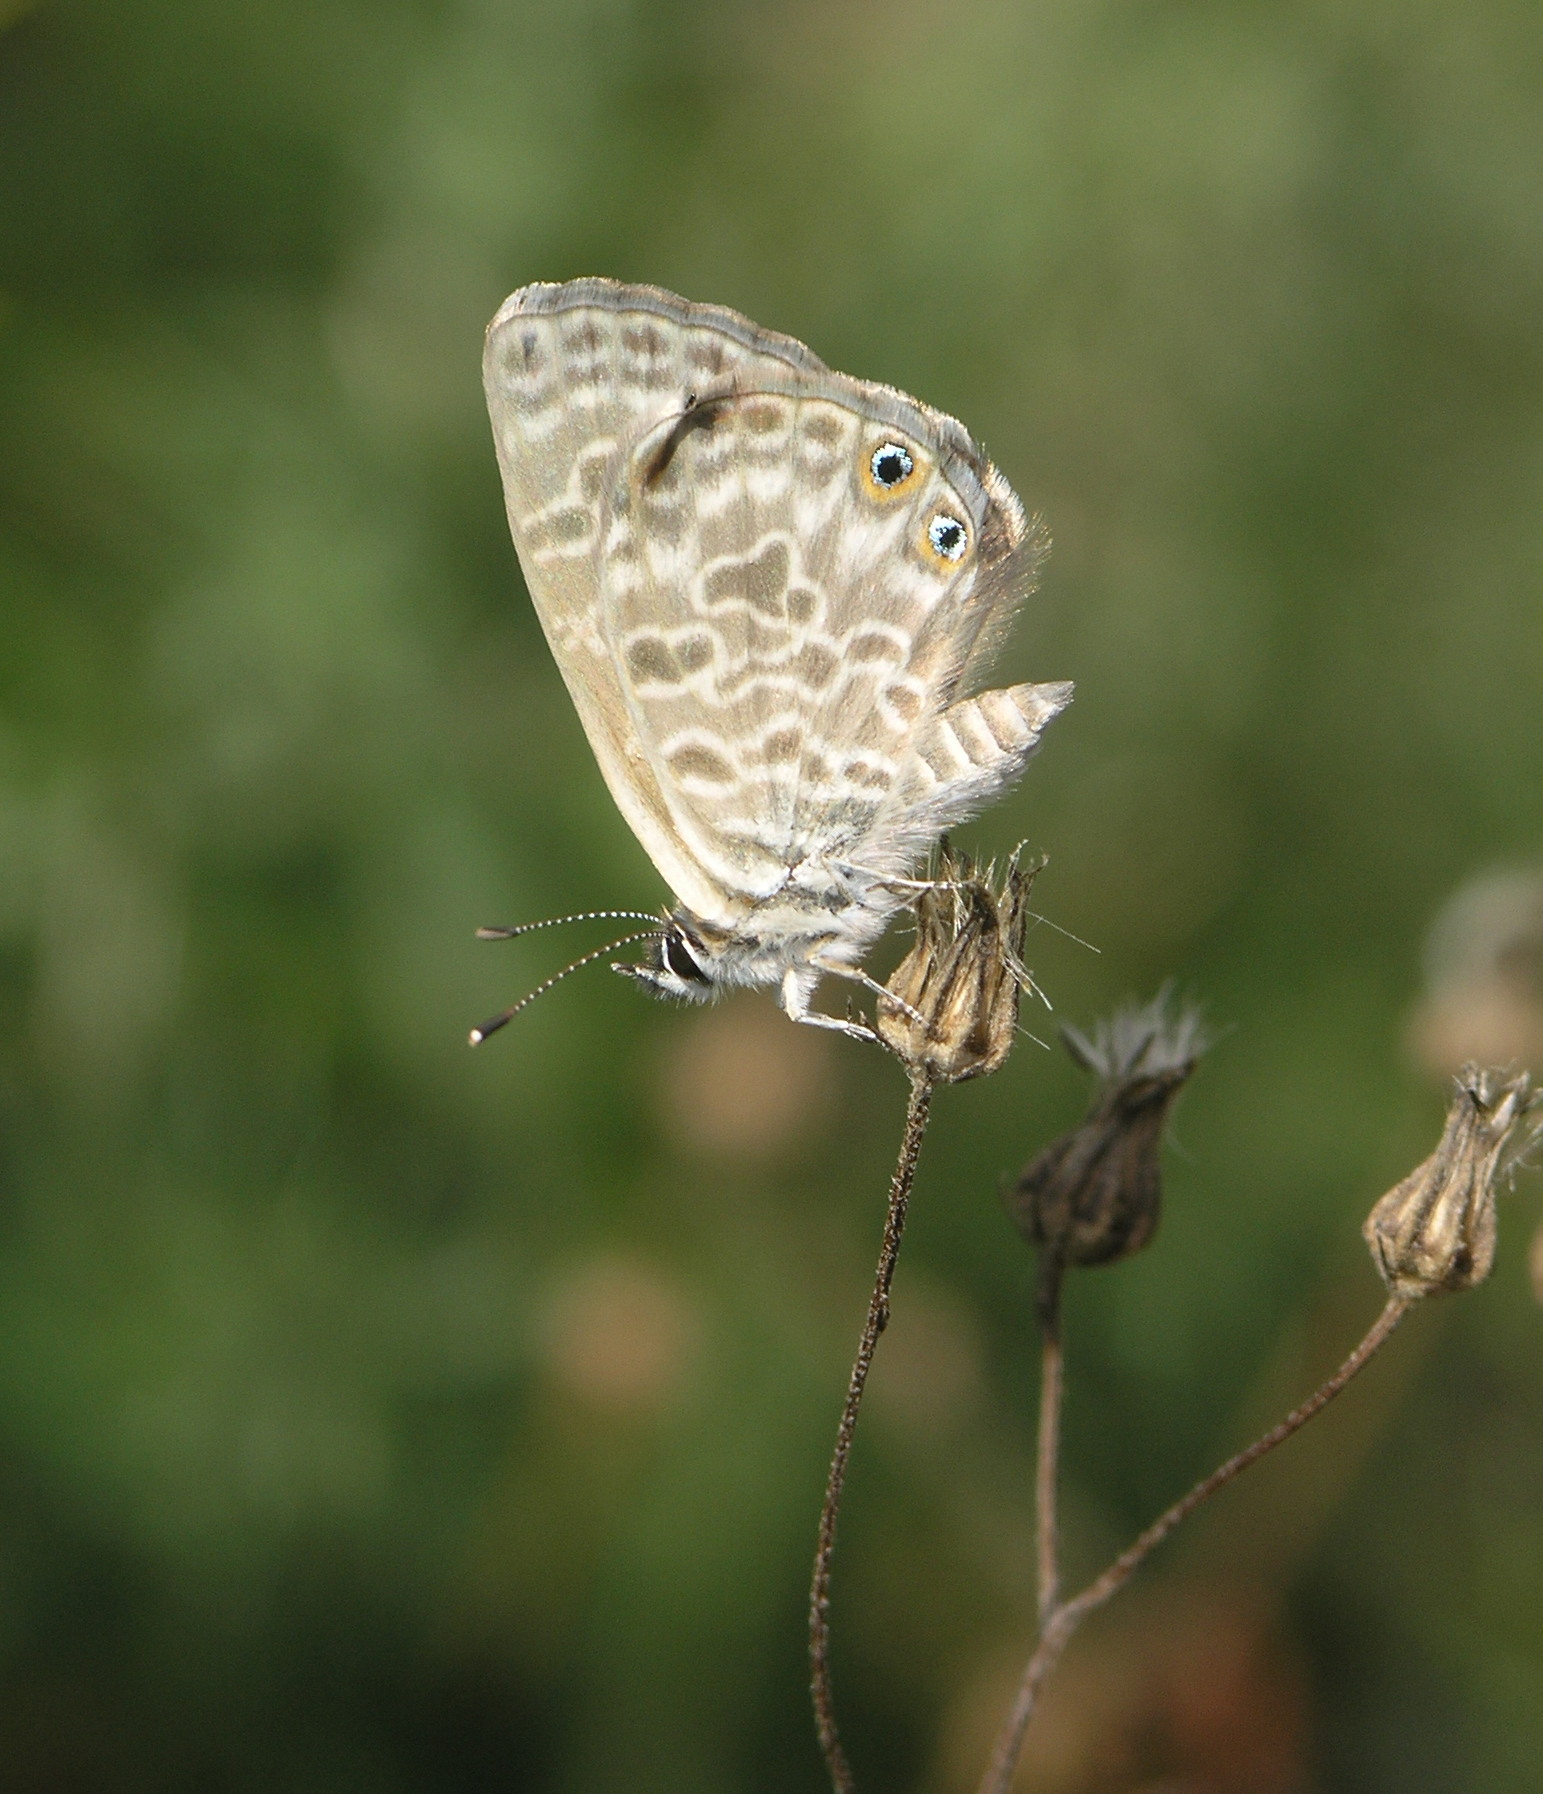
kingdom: Animalia
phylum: Arthropoda
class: Insecta
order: Lepidoptera
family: Lycaenidae
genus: Leptotes
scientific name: Leptotes pirithous
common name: Lang's short-tailed blue
